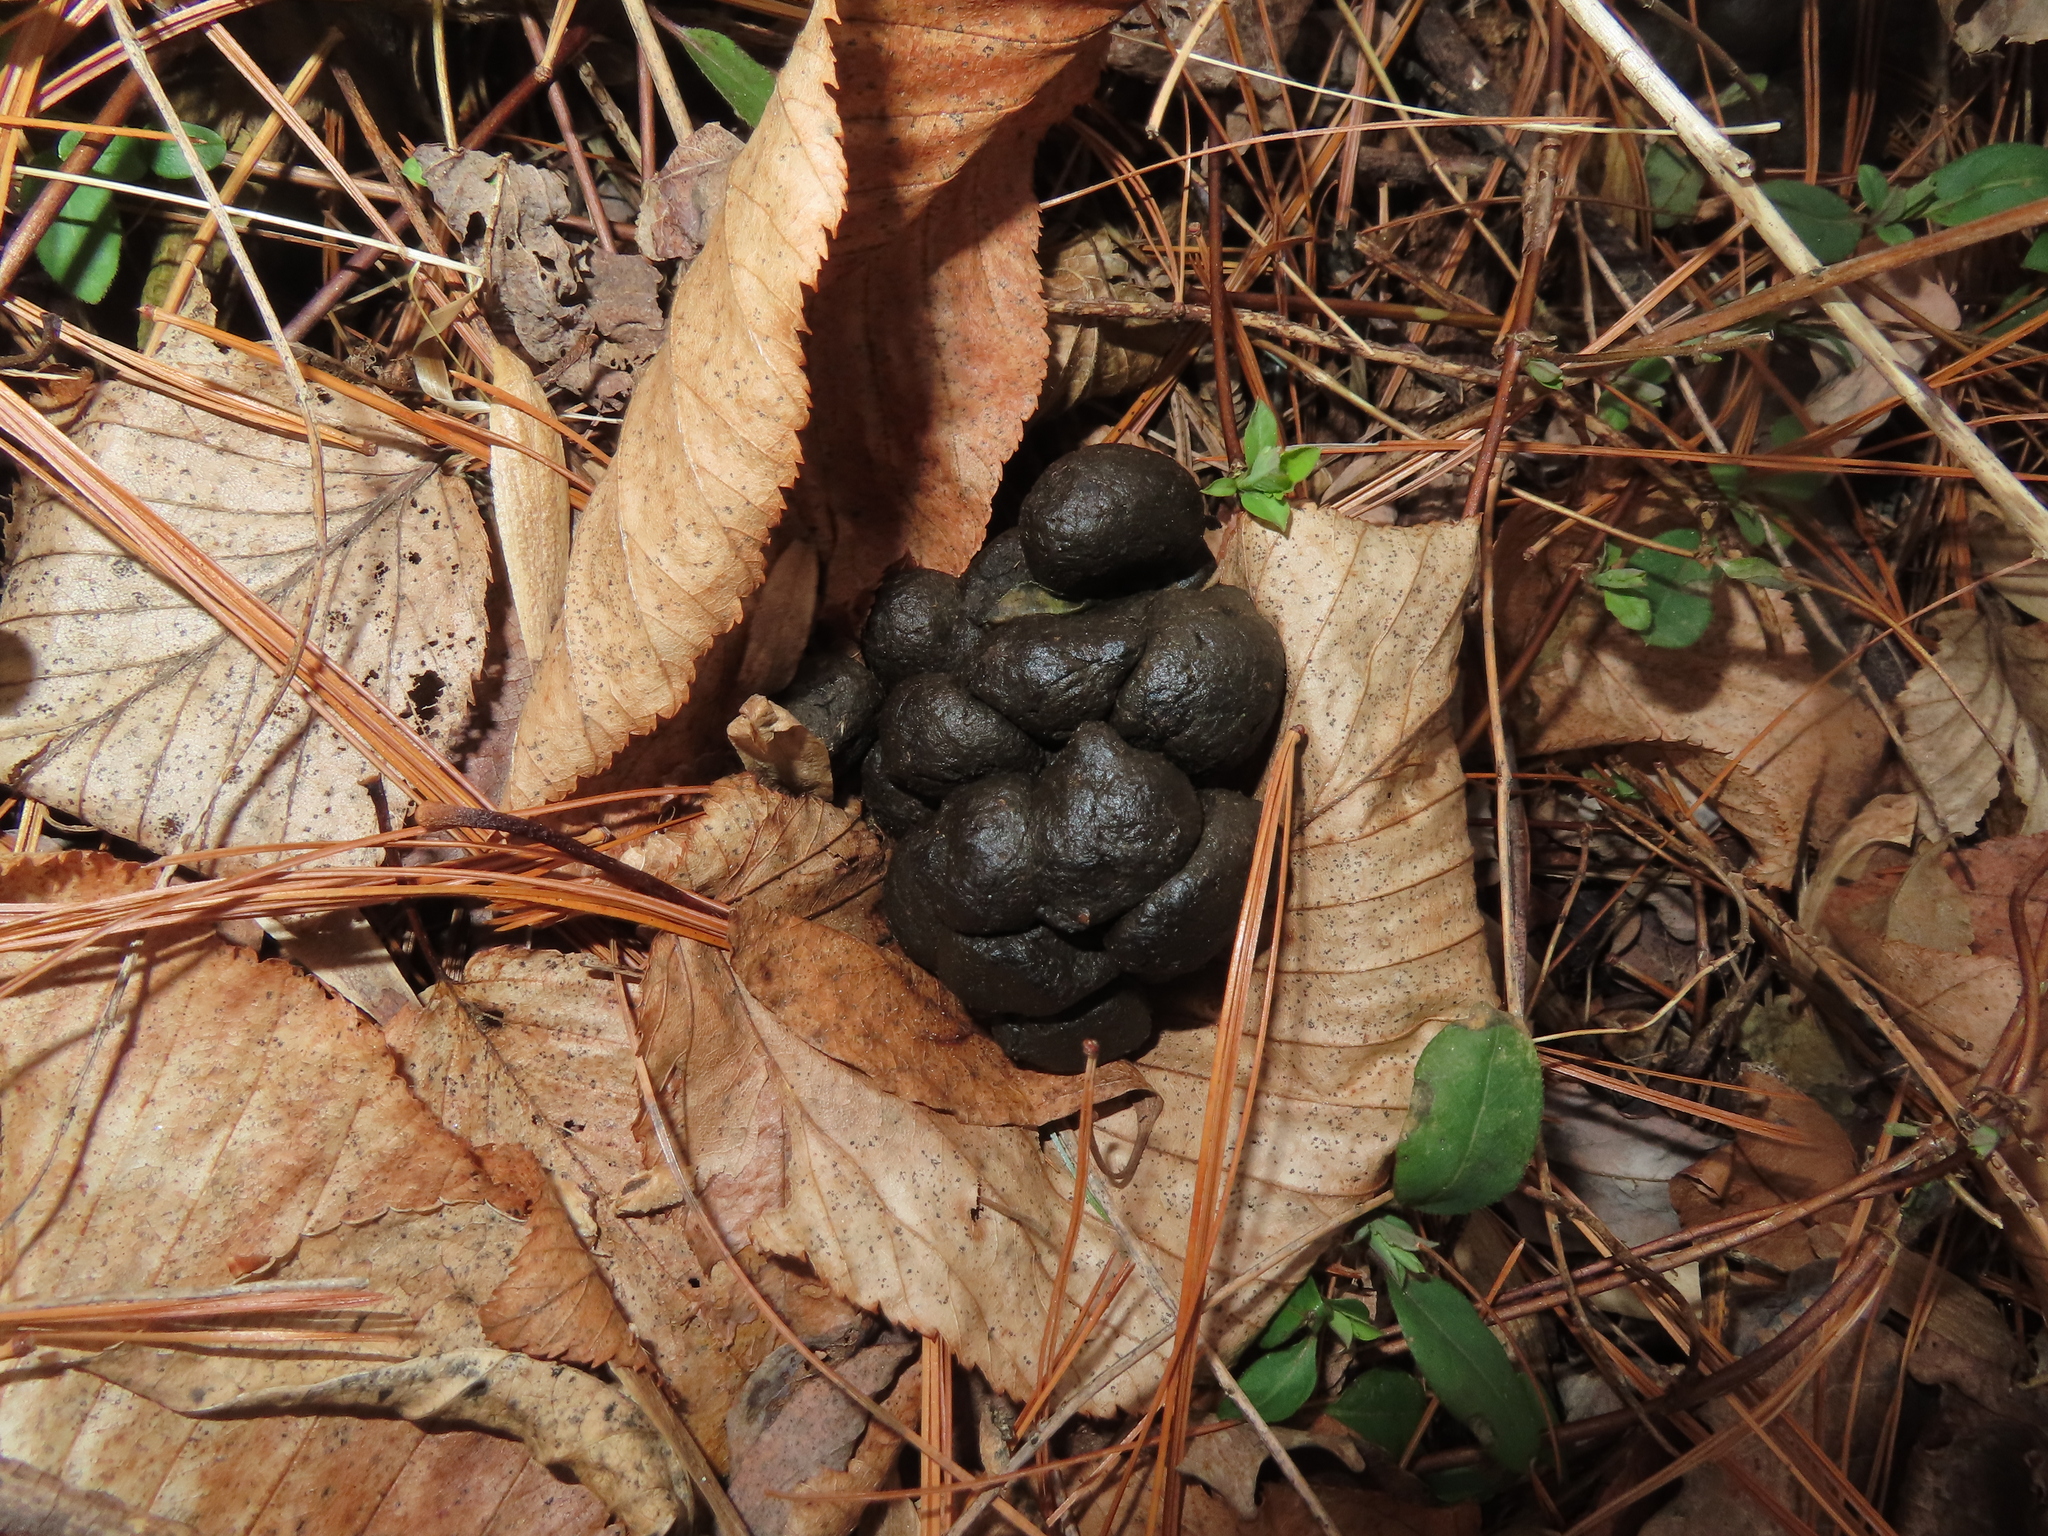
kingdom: Animalia
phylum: Chordata
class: Mammalia
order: Artiodactyla
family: Cervidae
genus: Odocoileus
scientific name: Odocoileus virginianus
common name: White-tailed deer
